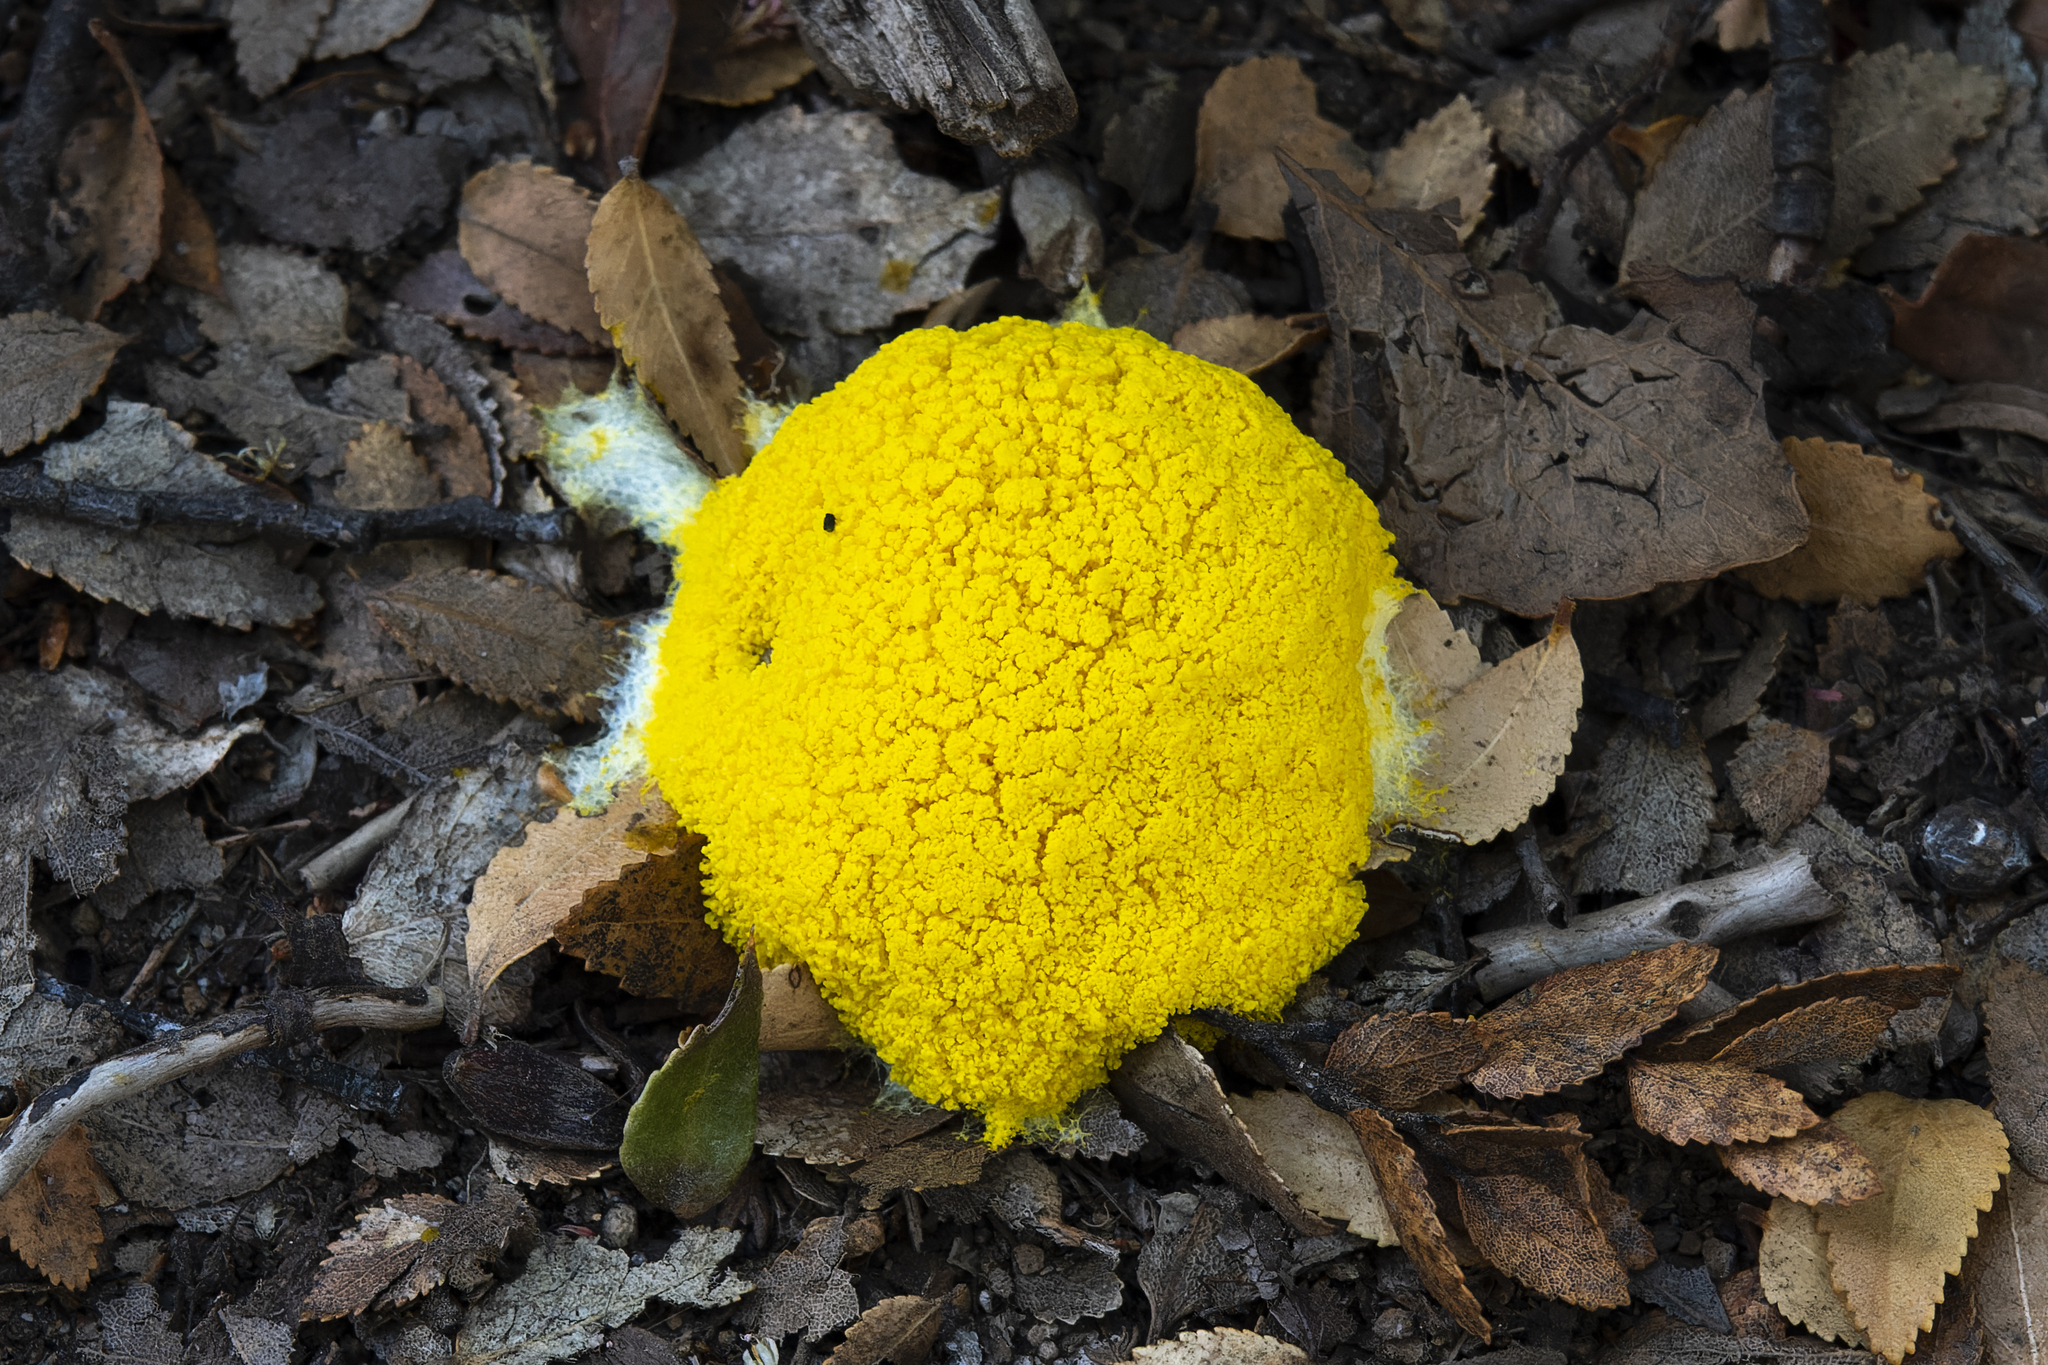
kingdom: Protozoa
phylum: Mycetozoa
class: Myxomycetes
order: Physarales
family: Physaraceae
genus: Fuligo
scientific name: Fuligo septica
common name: Dog vomit slime mold
